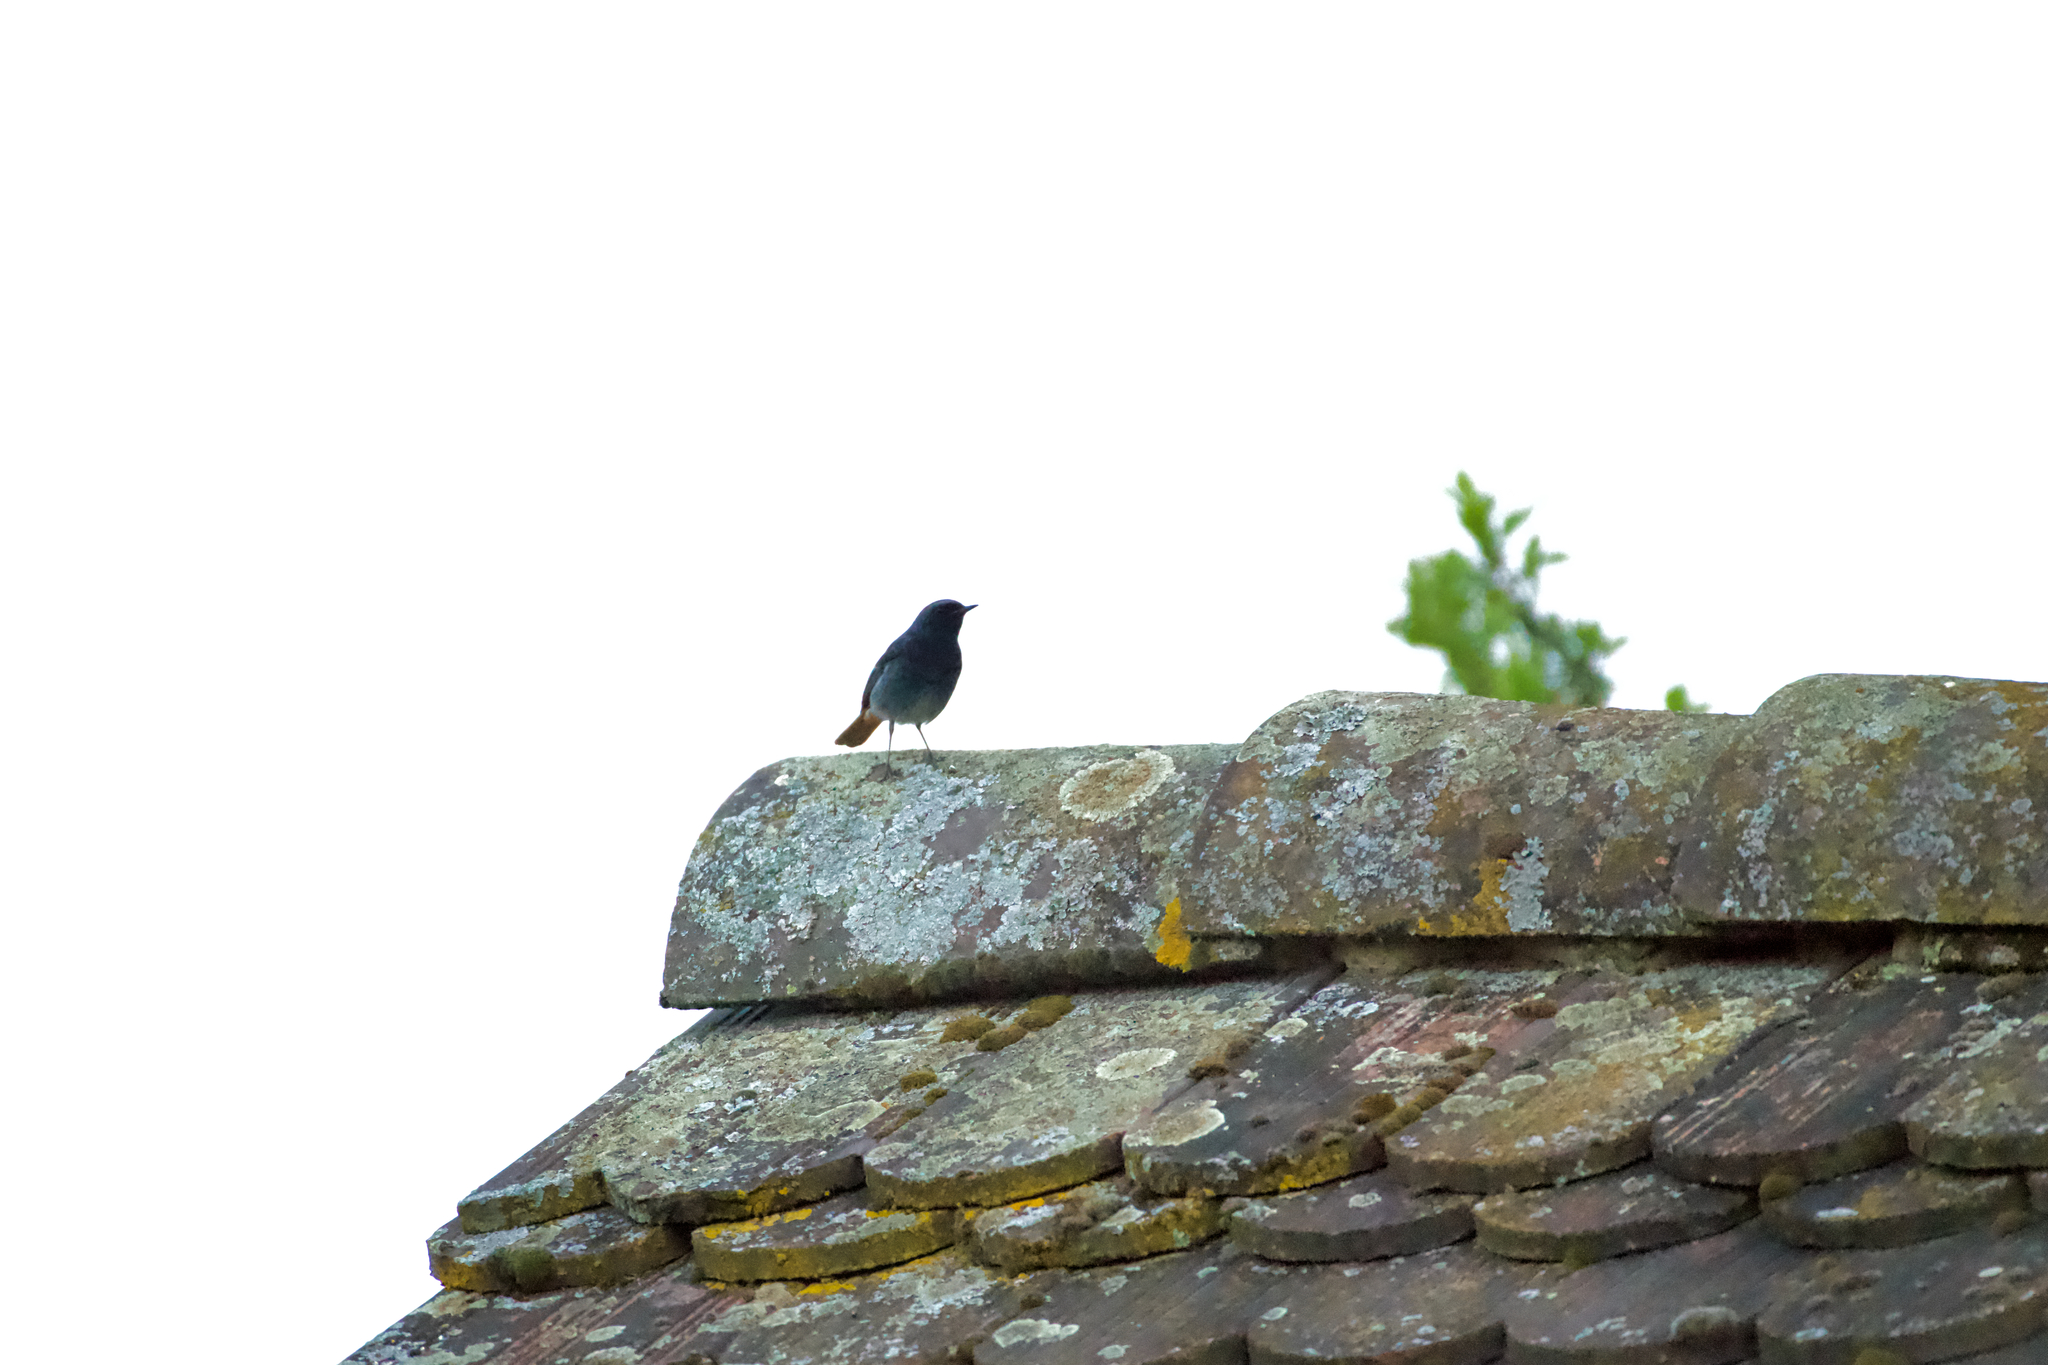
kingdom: Animalia
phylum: Chordata
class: Aves
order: Passeriformes
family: Muscicapidae
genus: Phoenicurus
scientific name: Phoenicurus ochruros
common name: Black redstart
